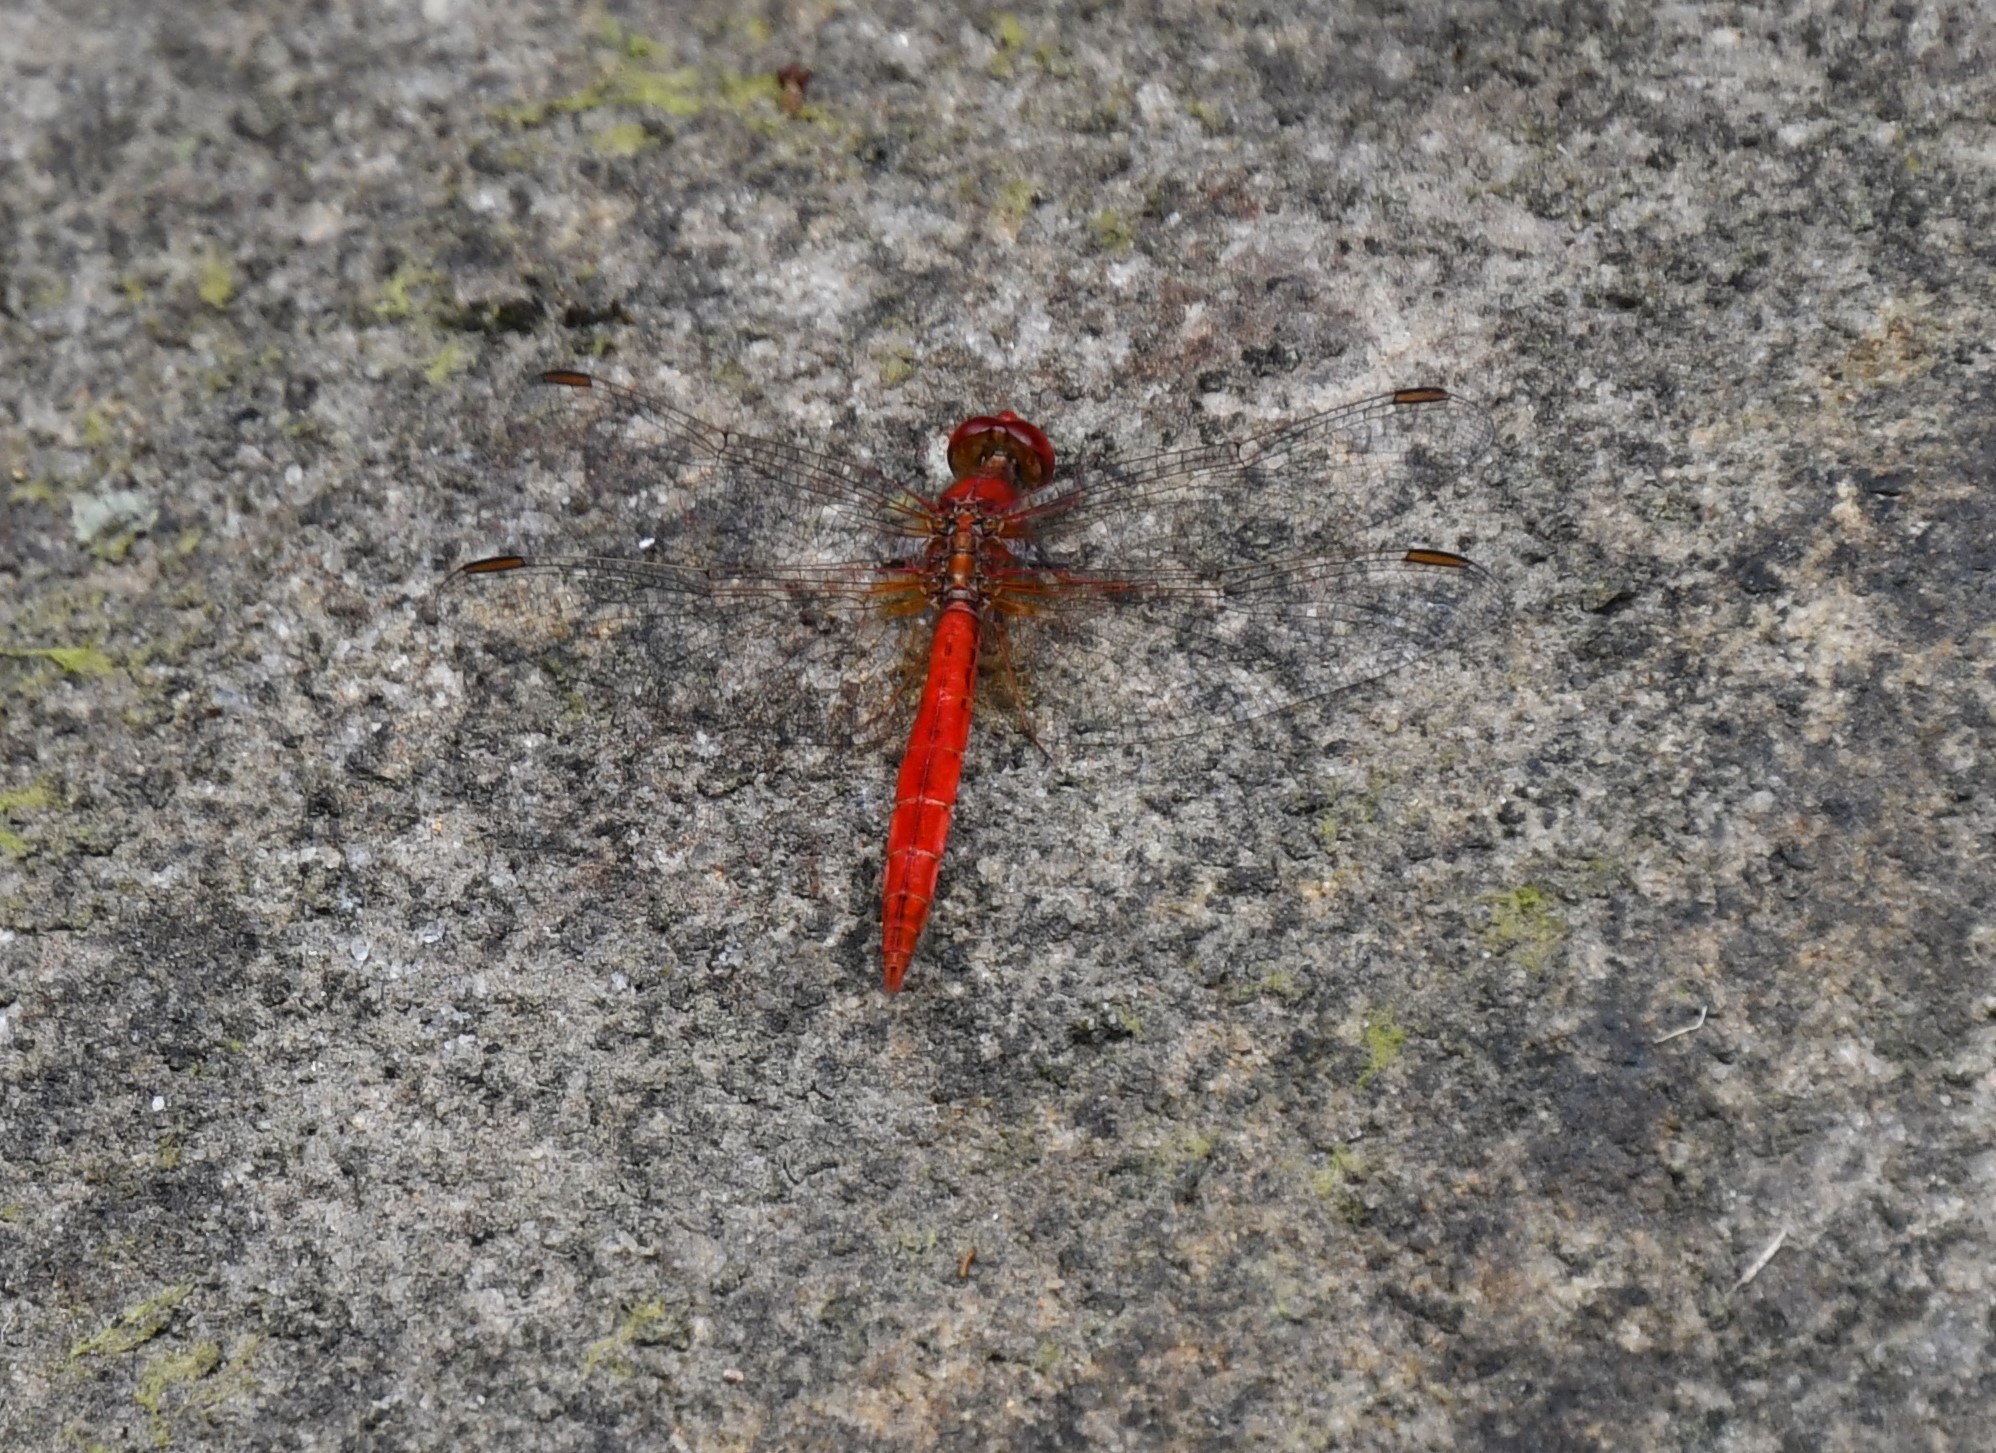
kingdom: Animalia
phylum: Arthropoda
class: Insecta
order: Odonata
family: Libellulidae
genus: Diplacodes
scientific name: Diplacodes haematodes
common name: Scarlet percher
